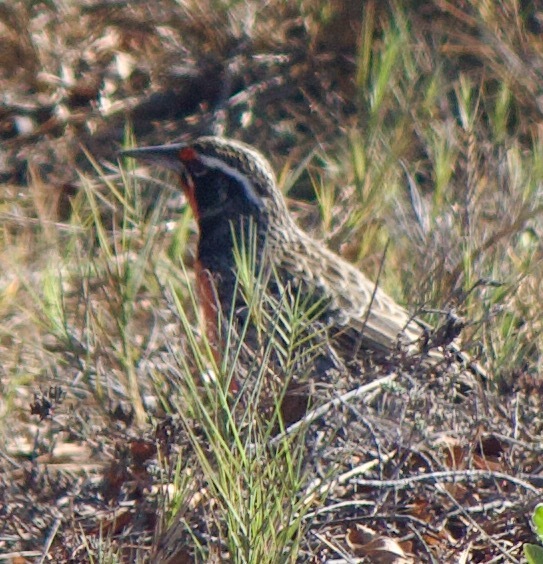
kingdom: Animalia
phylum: Chordata
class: Aves
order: Passeriformes
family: Icteridae
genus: Sturnella
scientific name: Sturnella loyca
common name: Long-tailed meadowlark
